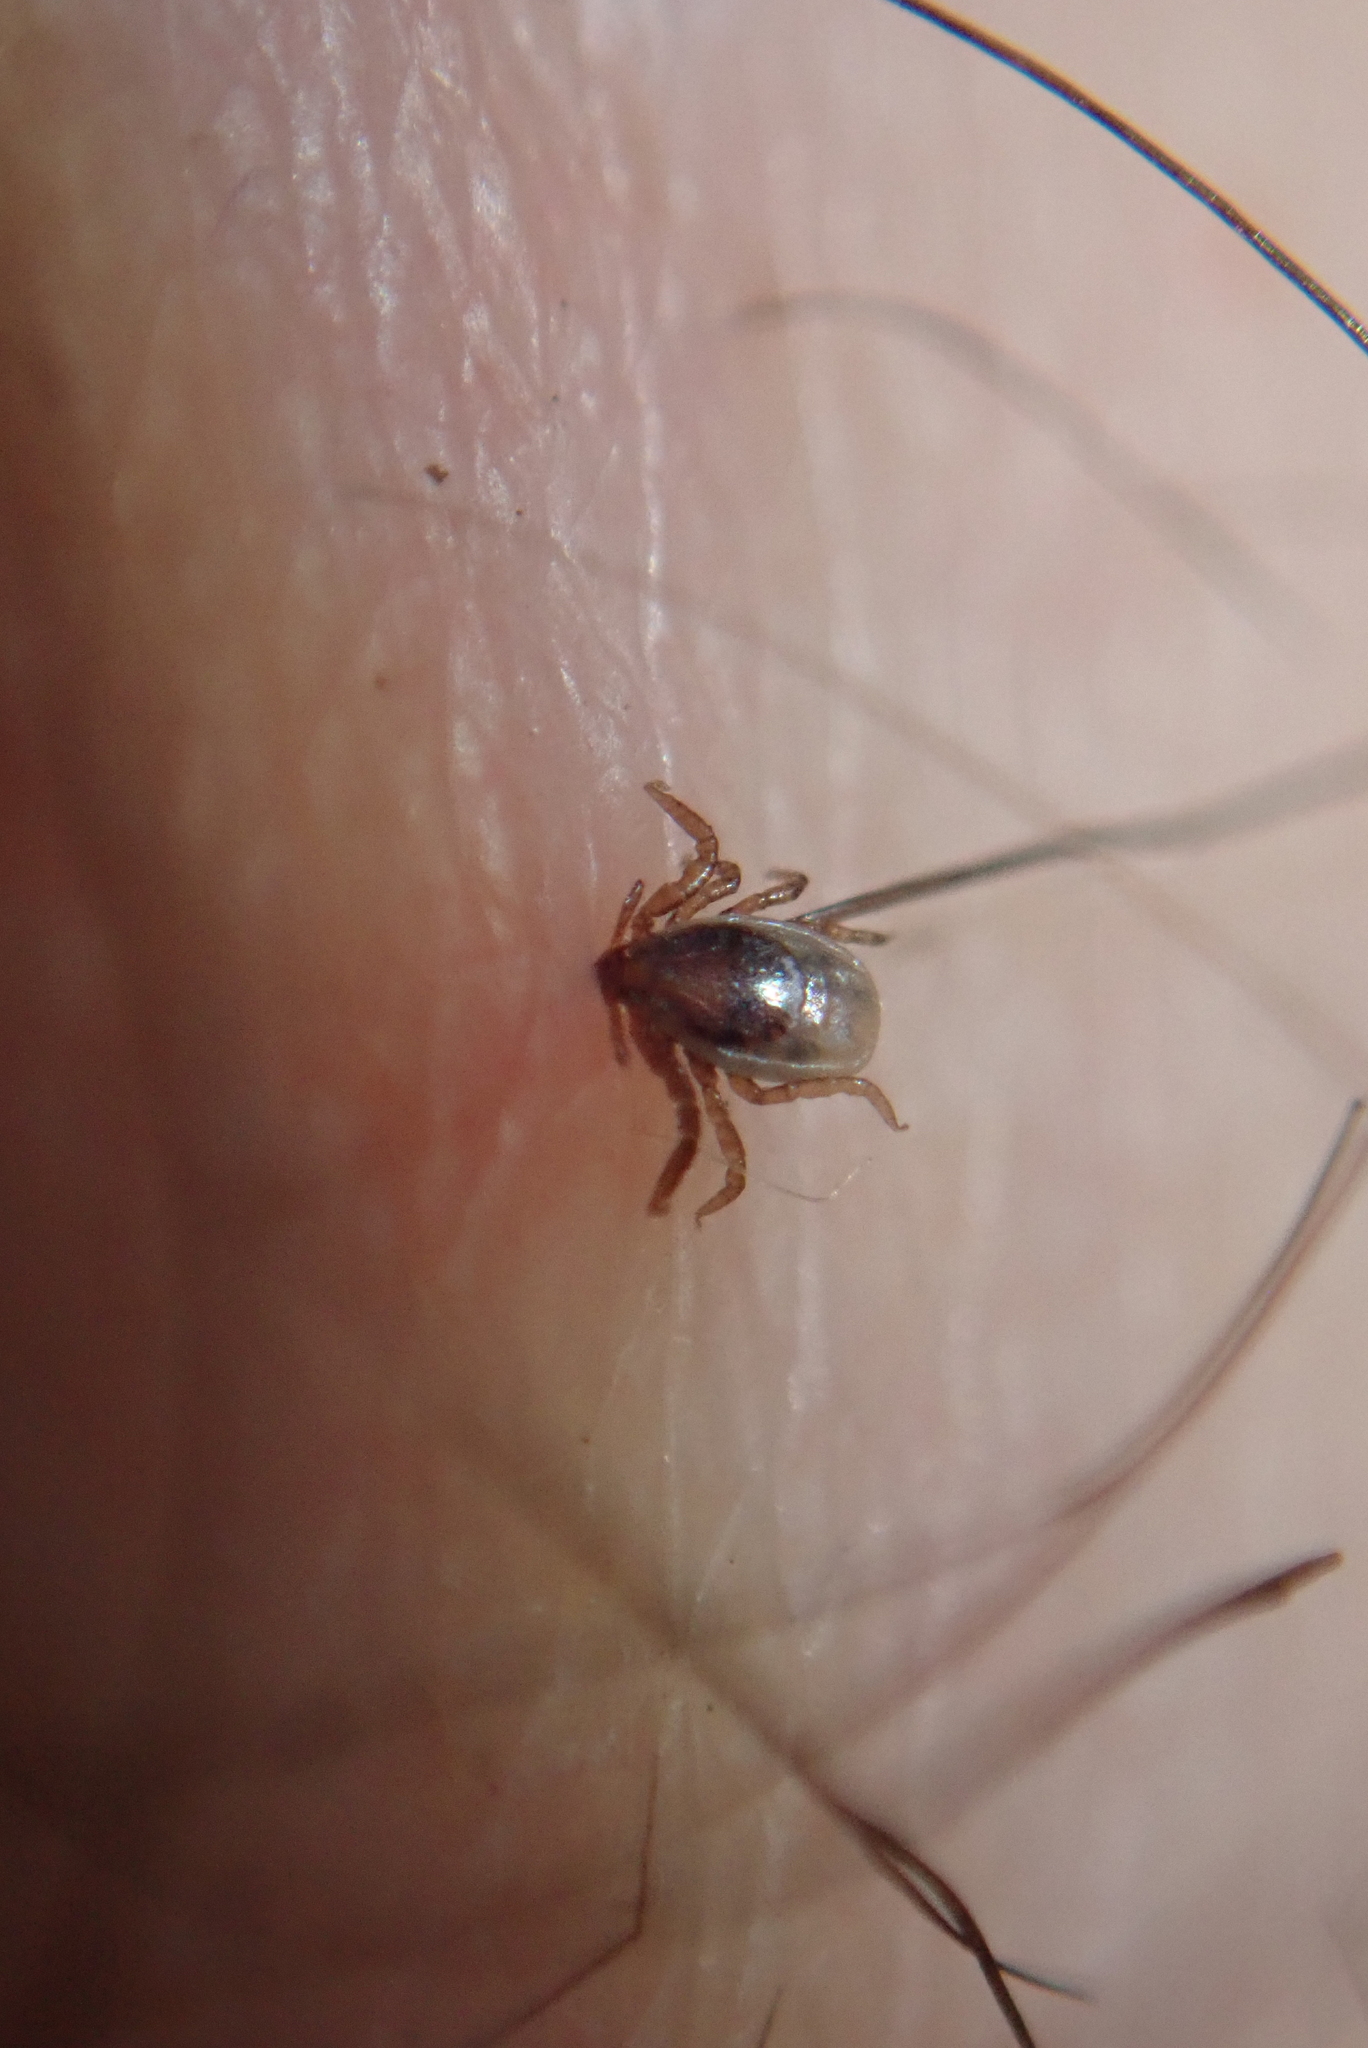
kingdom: Animalia
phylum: Arthropoda
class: Arachnida
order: Ixodida
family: Ixodidae
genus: Ixodes
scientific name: Ixodes scapularis
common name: Black legged tick
